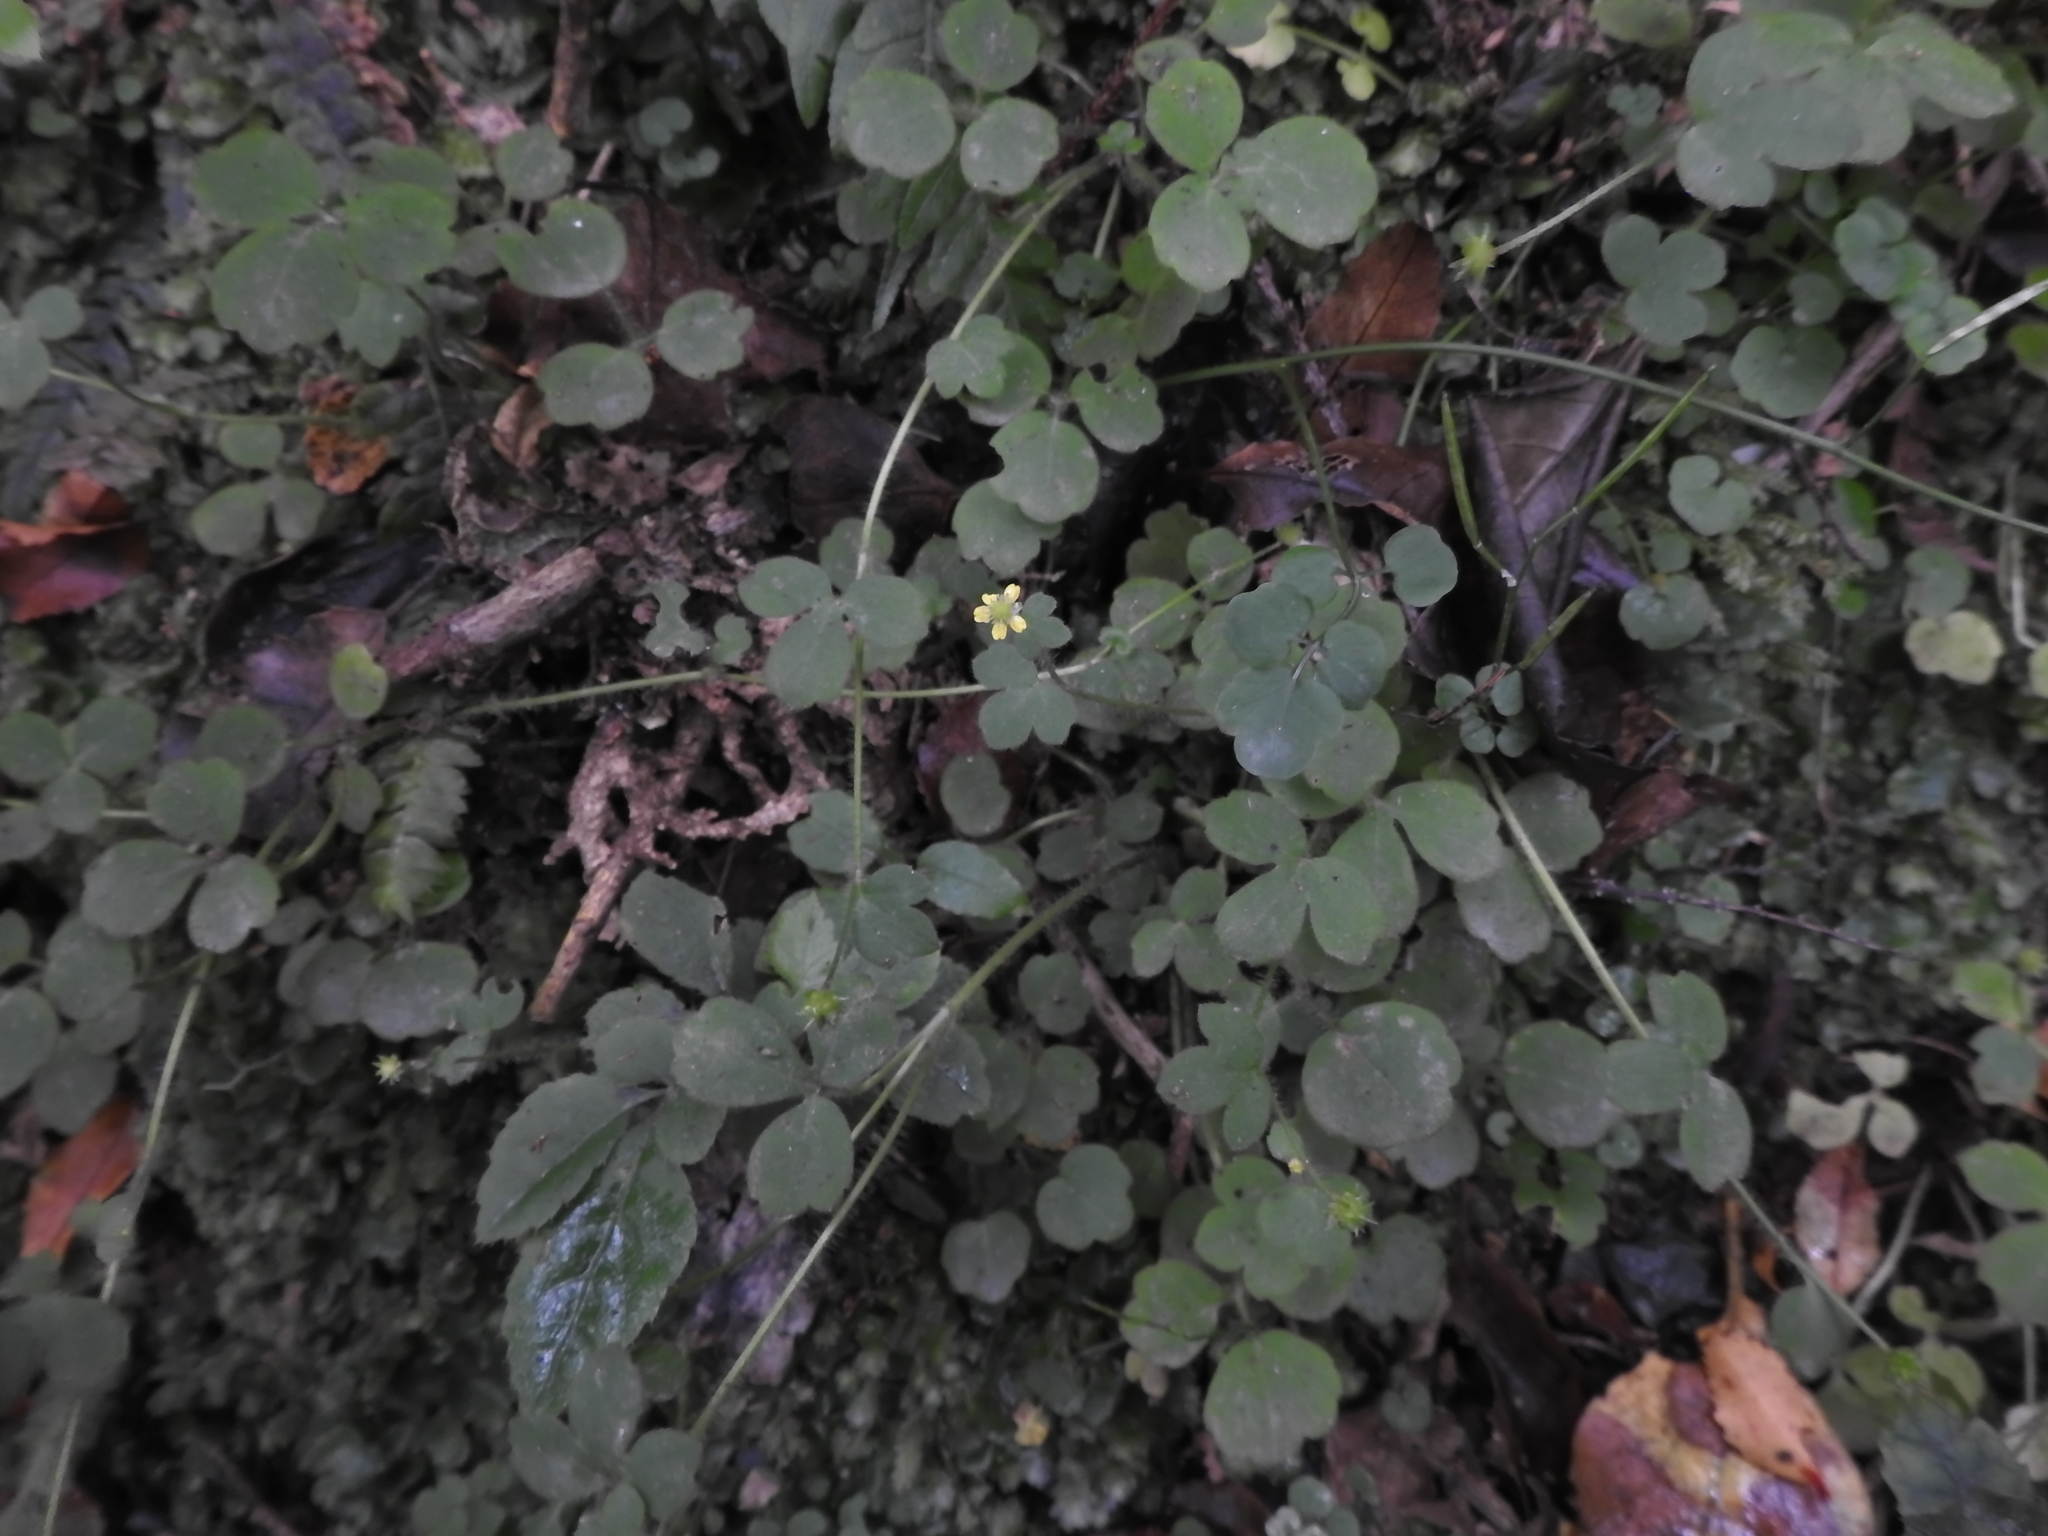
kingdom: Plantae
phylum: Tracheophyta
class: Magnoliopsida
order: Ranunculales
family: Ranunculaceae
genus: Ranunculus
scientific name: Ranunculus reflexus
